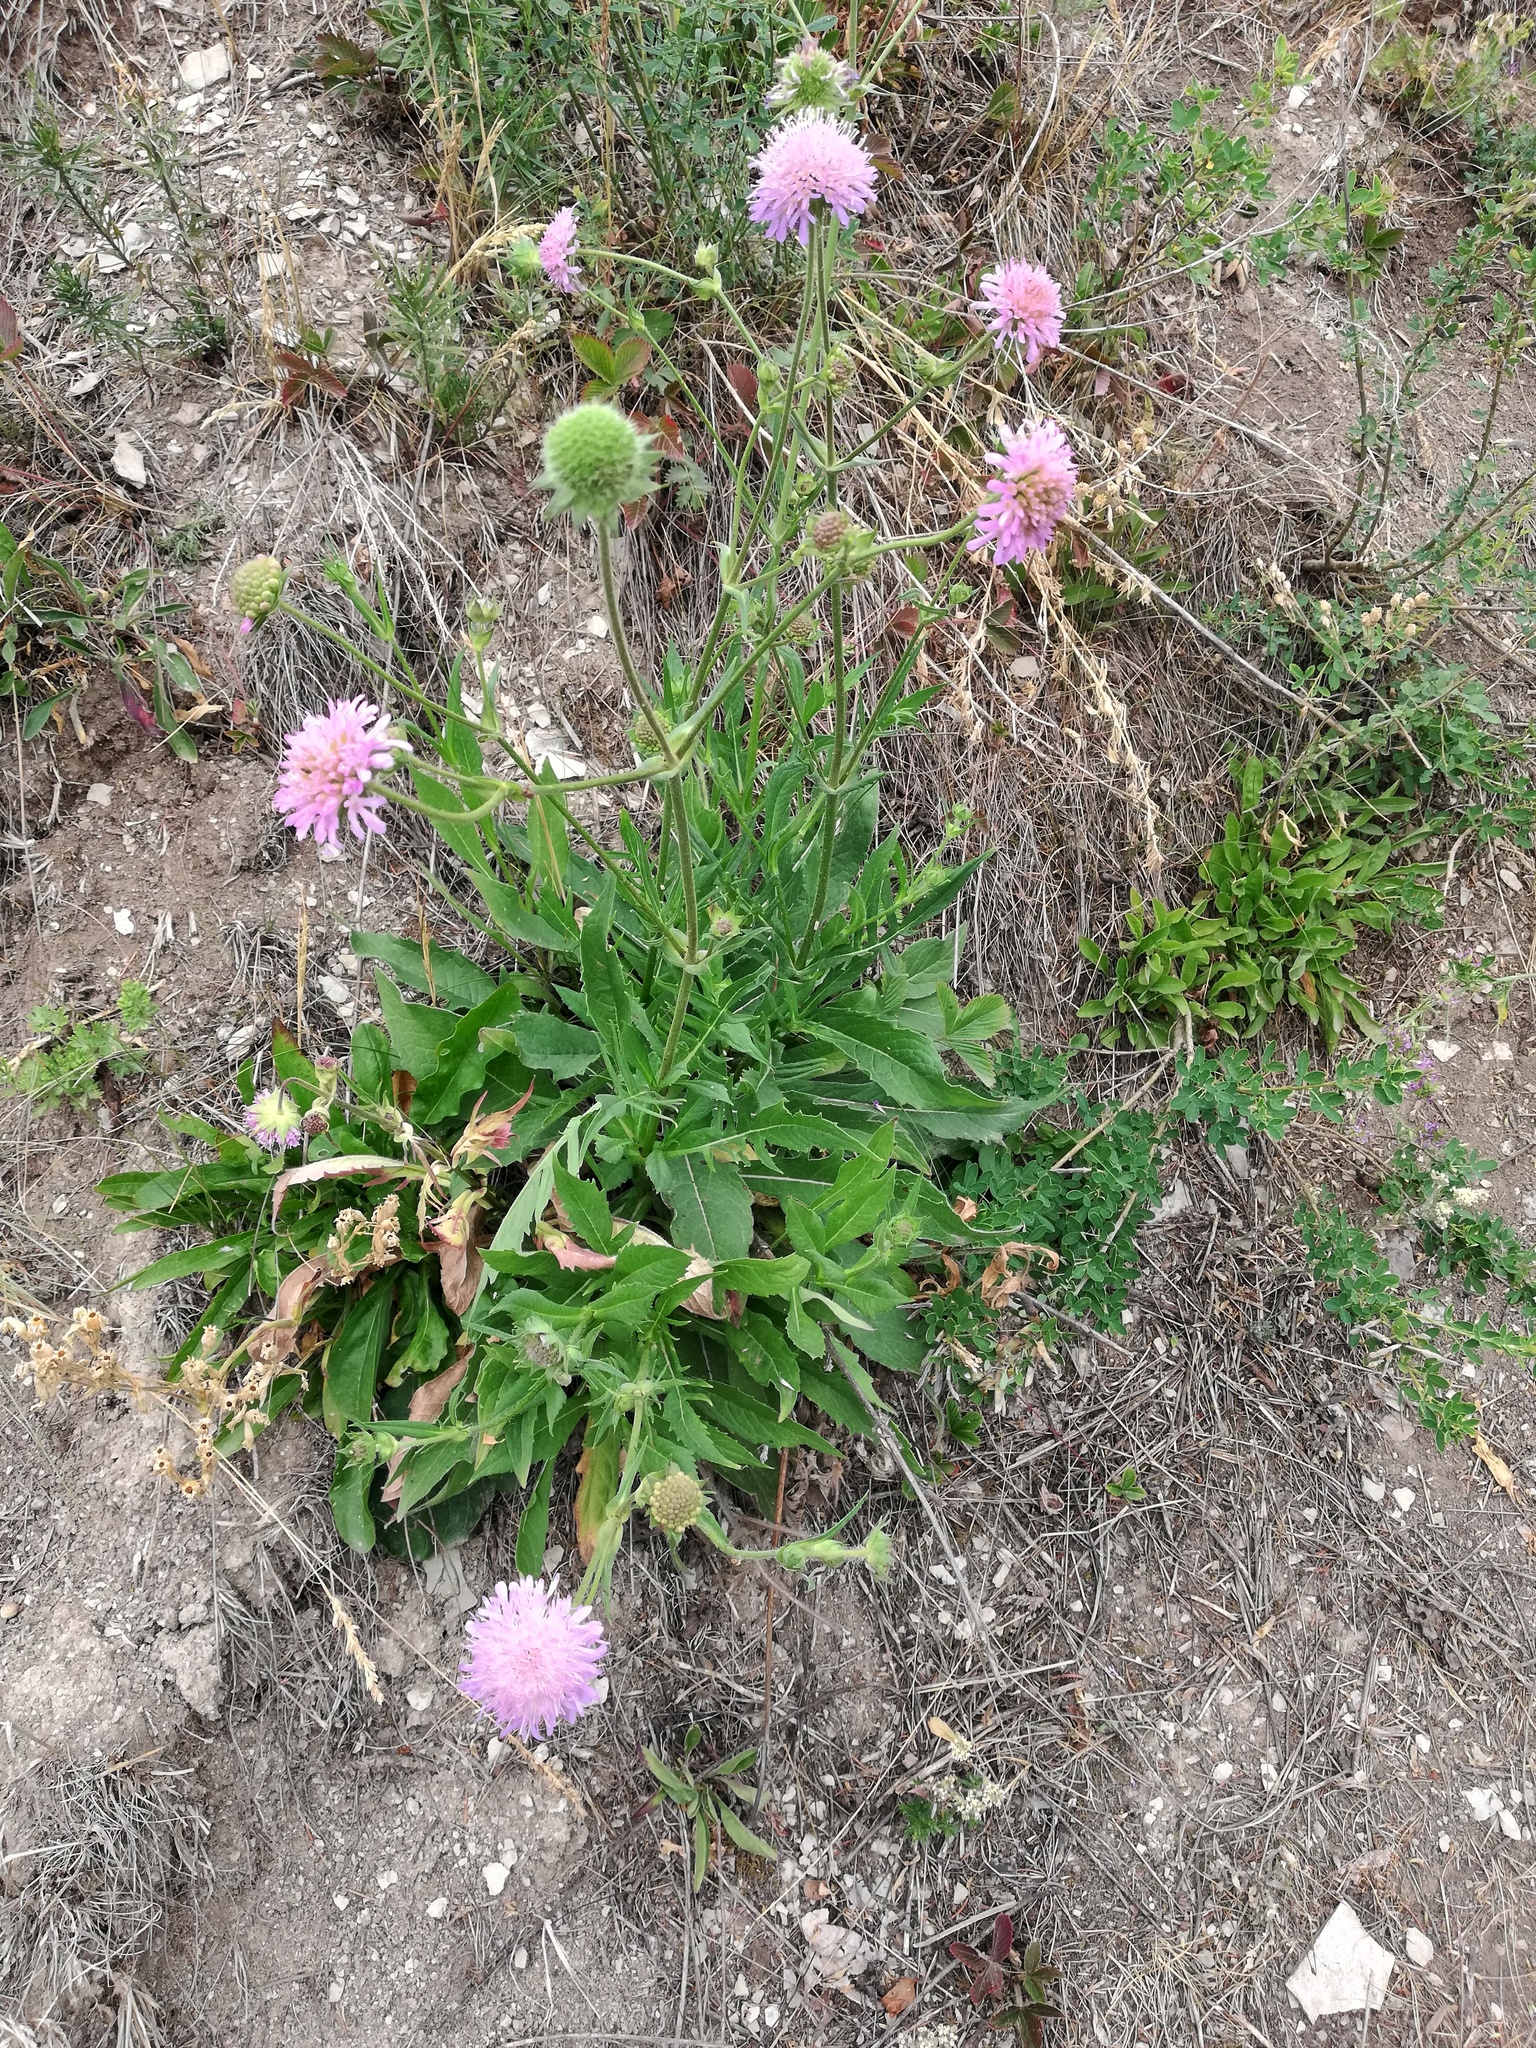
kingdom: Plantae
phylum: Tracheophyta
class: Magnoliopsida
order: Dipsacales
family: Caprifoliaceae
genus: Knautia
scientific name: Knautia arvensis
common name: Field scabiosa
